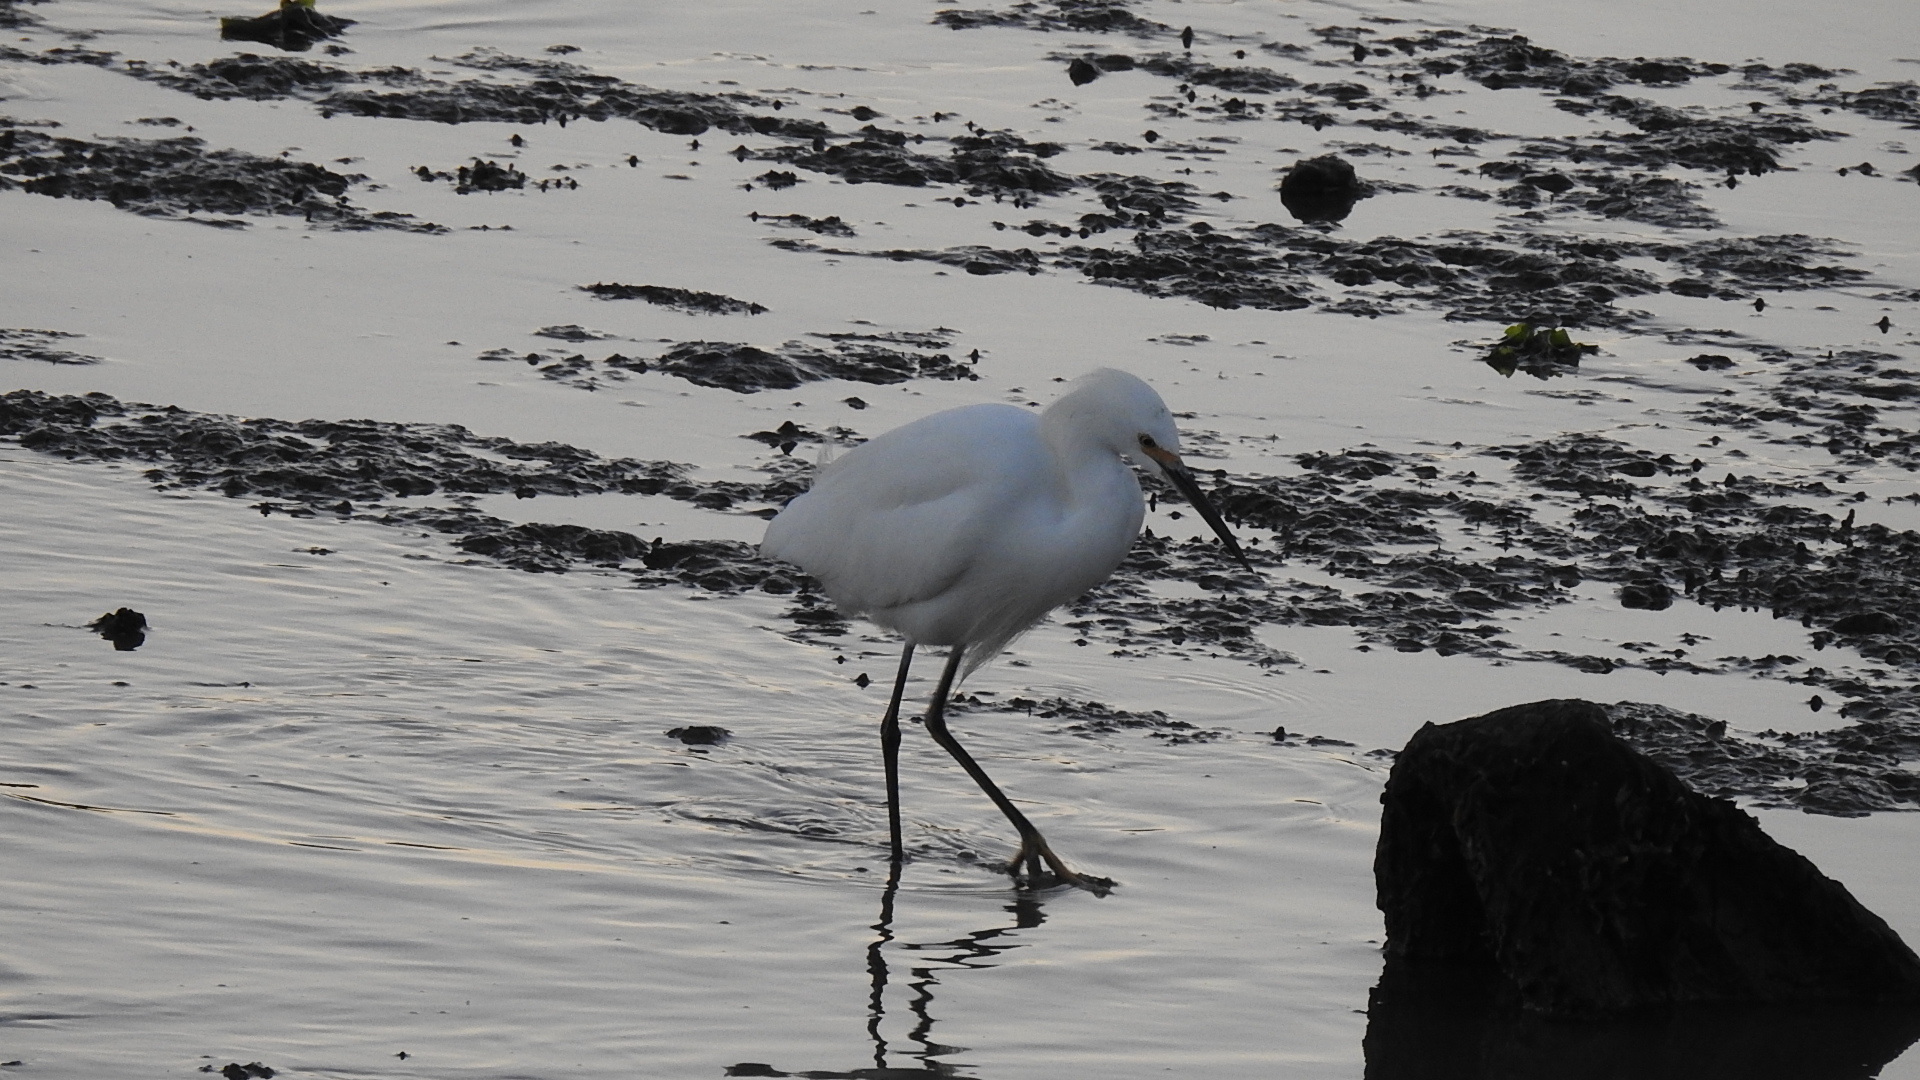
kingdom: Animalia
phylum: Chordata
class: Aves
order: Pelecaniformes
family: Ardeidae
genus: Egretta
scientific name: Egretta thula
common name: Snowy egret
